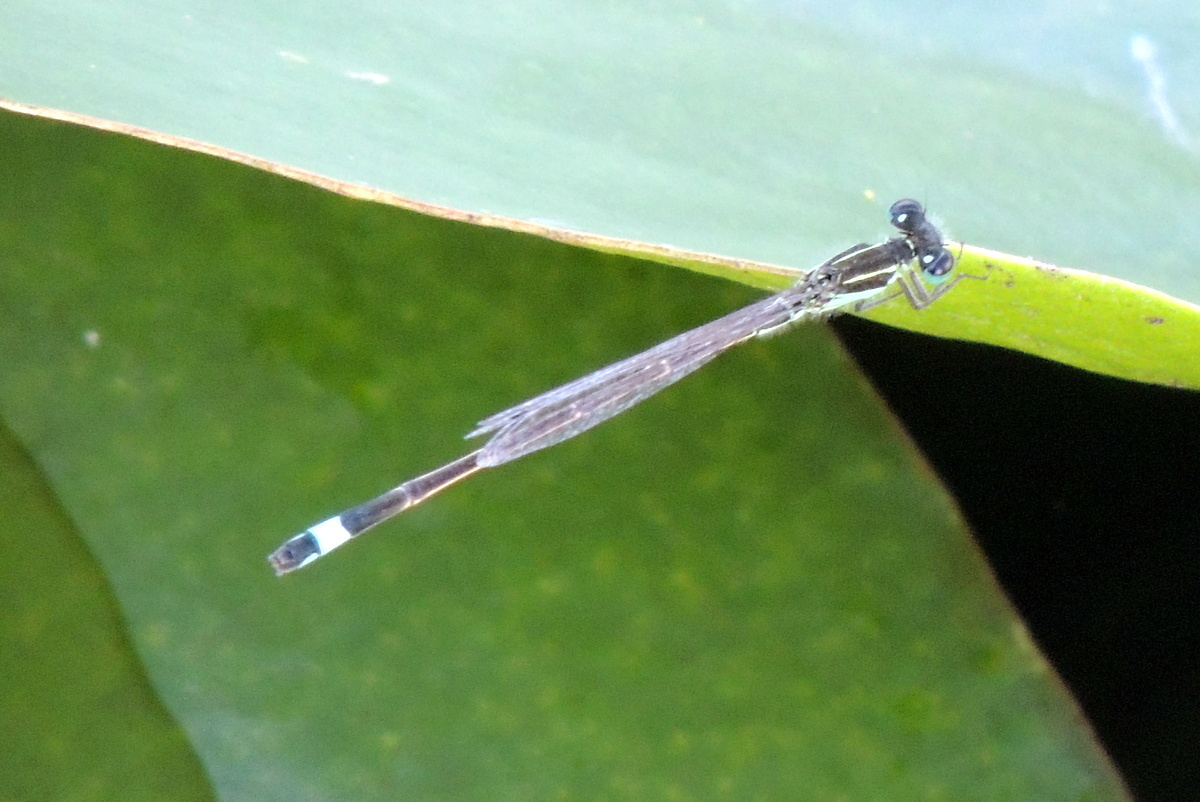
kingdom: Animalia
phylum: Arthropoda
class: Insecta
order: Odonata
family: Coenagrionidae
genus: Ischnura
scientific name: Ischnura ramburii
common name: Rambur's forktail
